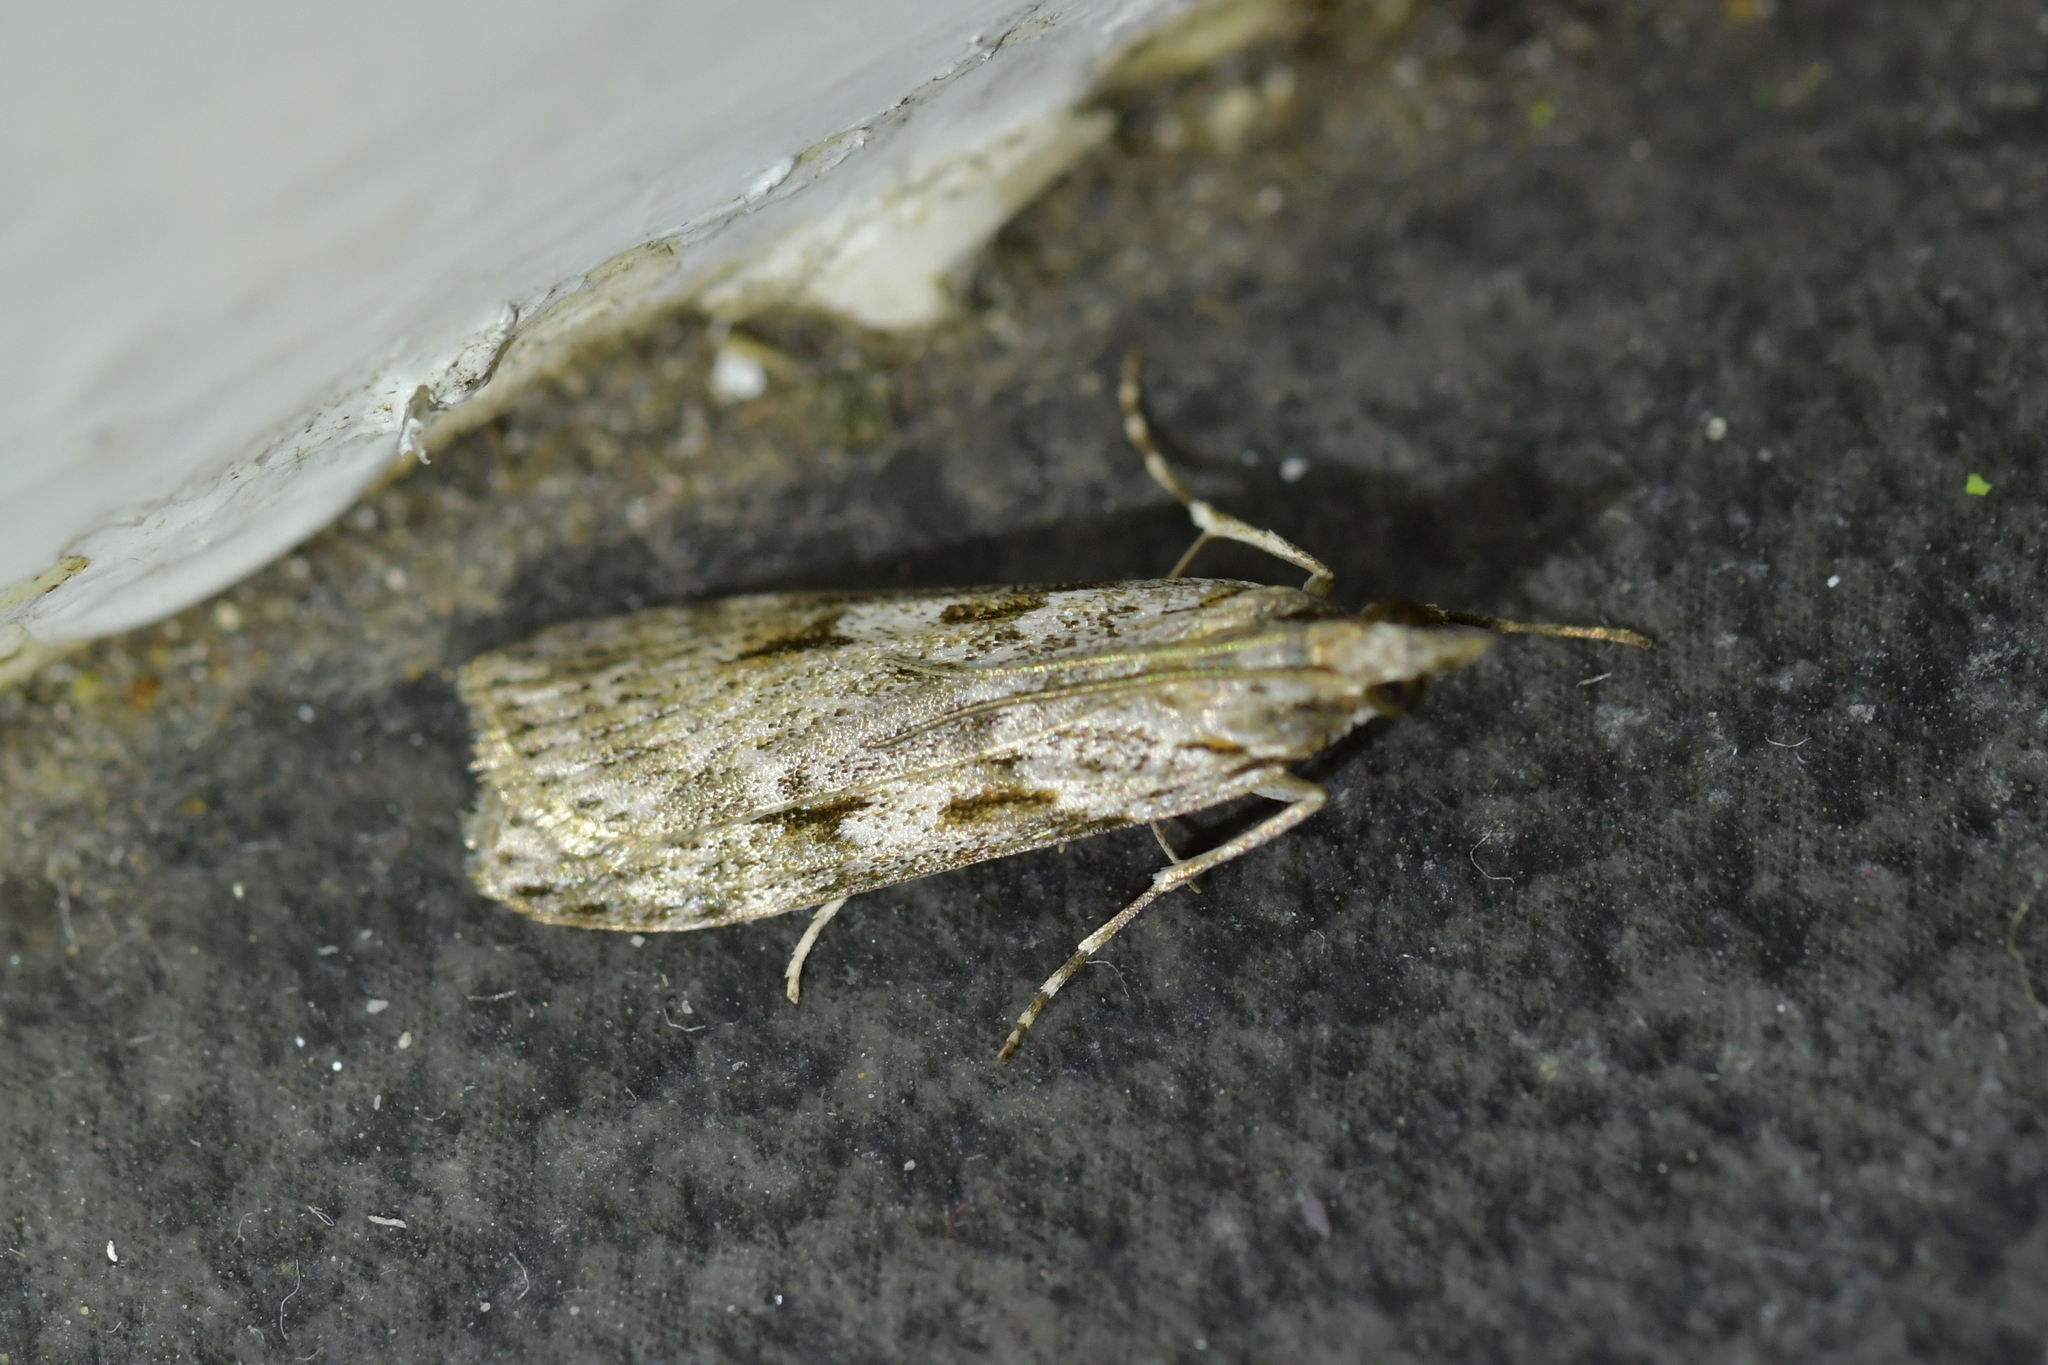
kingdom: Animalia
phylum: Arthropoda
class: Insecta
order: Lepidoptera
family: Crambidae
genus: Scoparia
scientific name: Scoparia halopis
